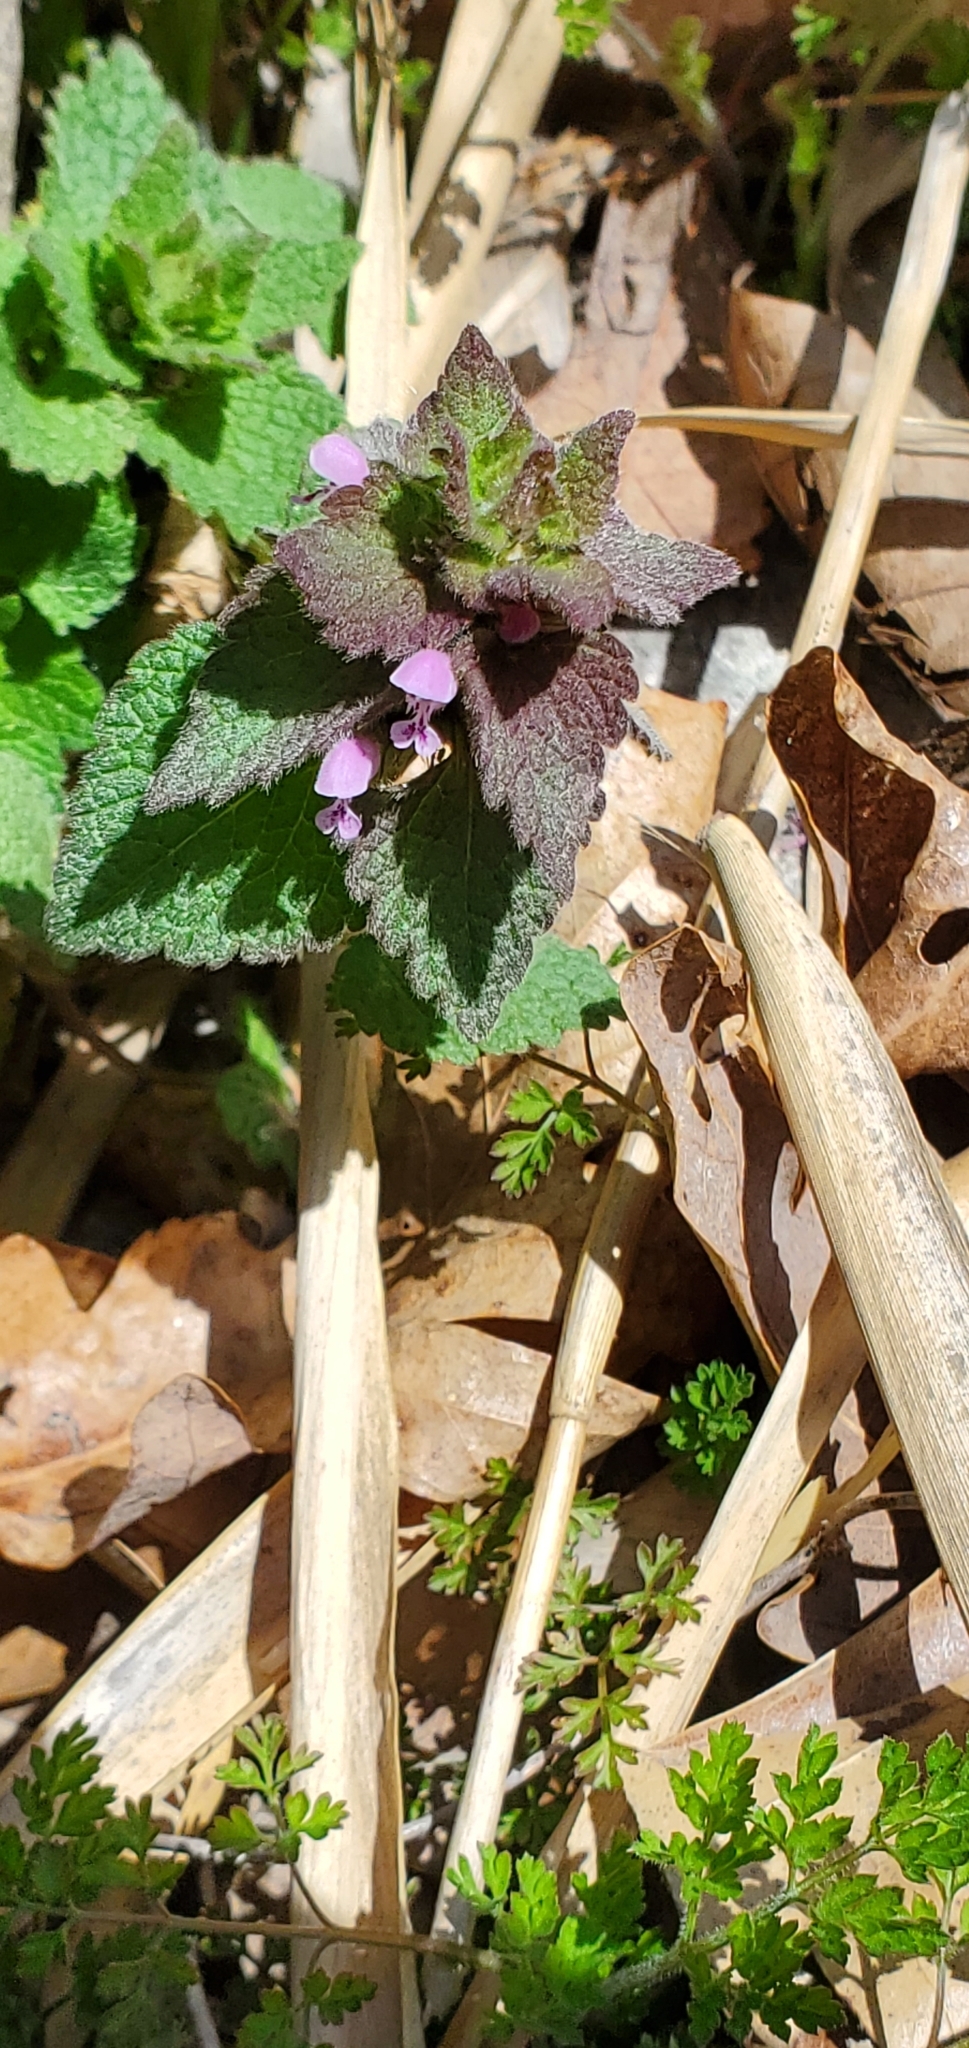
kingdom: Plantae
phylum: Tracheophyta
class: Magnoliopsida
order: Lamiales
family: Lamiaceae
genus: Lamium
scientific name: Lamium purpureum
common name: Red dead-nettle
